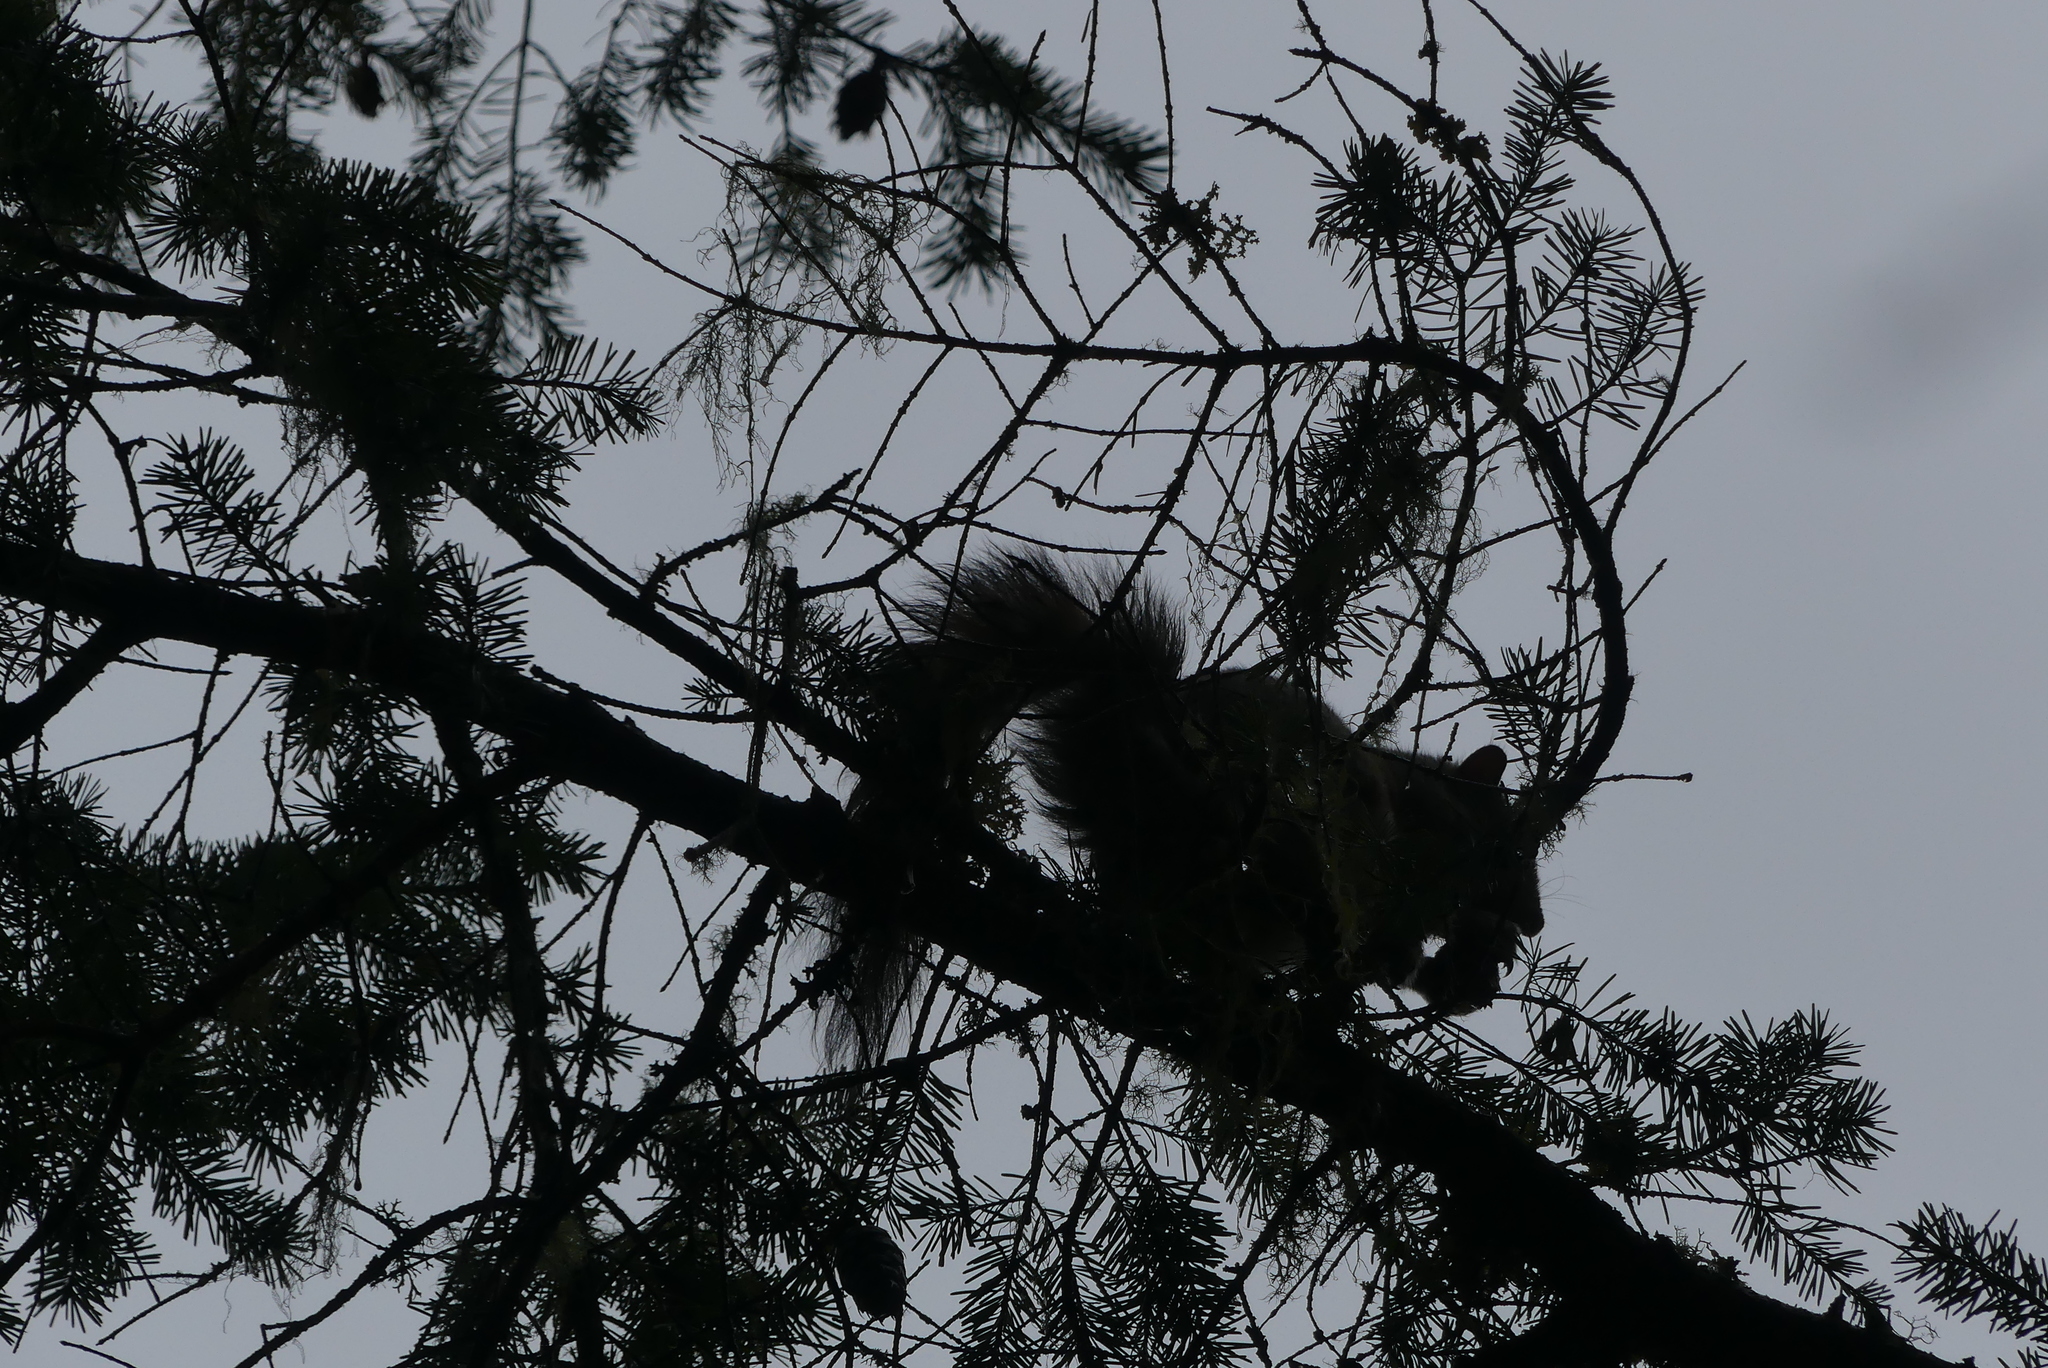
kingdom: Animalia
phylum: Chordata
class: Mammalia
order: Rodentia
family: Sciuridae
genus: Sciurus
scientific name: Sciurus carolinensis
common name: Eastern gray squirrel
